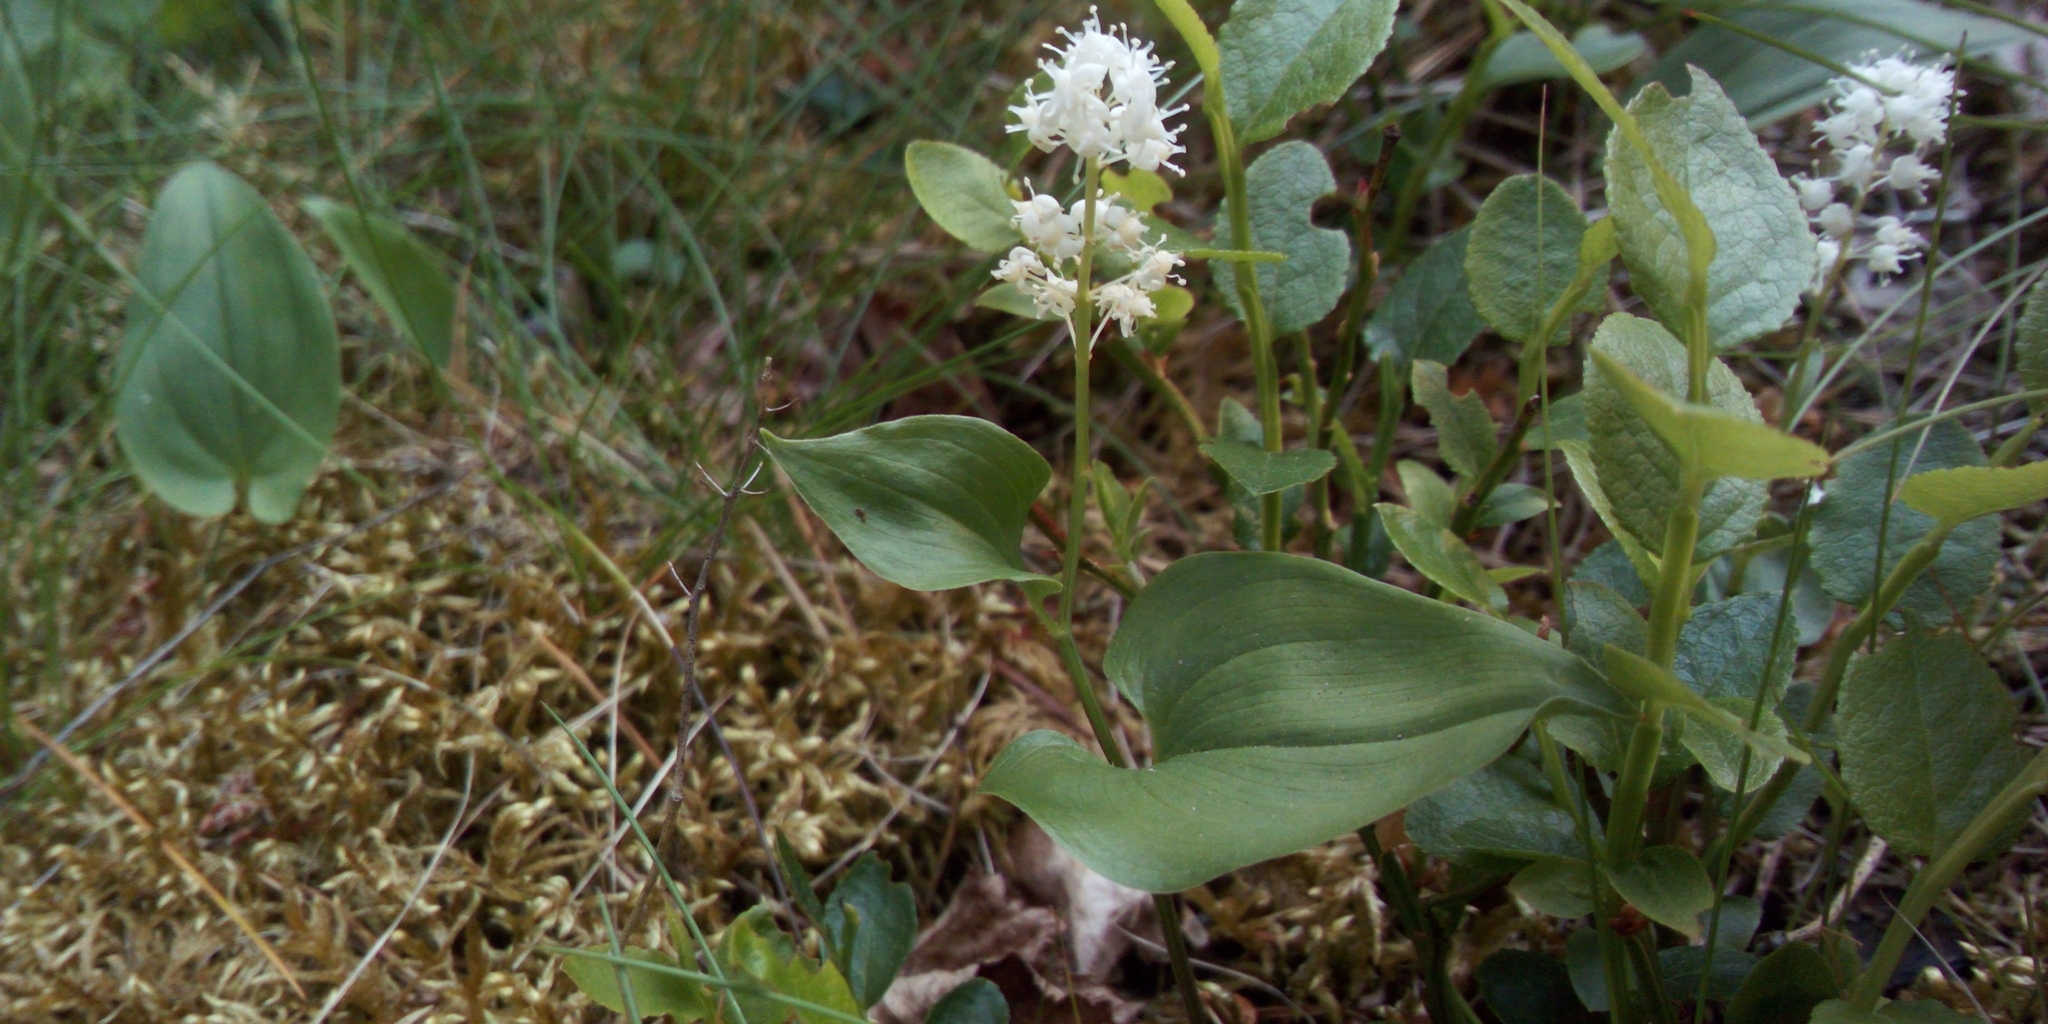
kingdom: Plantae
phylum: Tracheophyta
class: Liliopsida
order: Asparagales
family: Asparagaceae
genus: Maianthemum
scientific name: Maianthemum bifolium
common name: May lily
